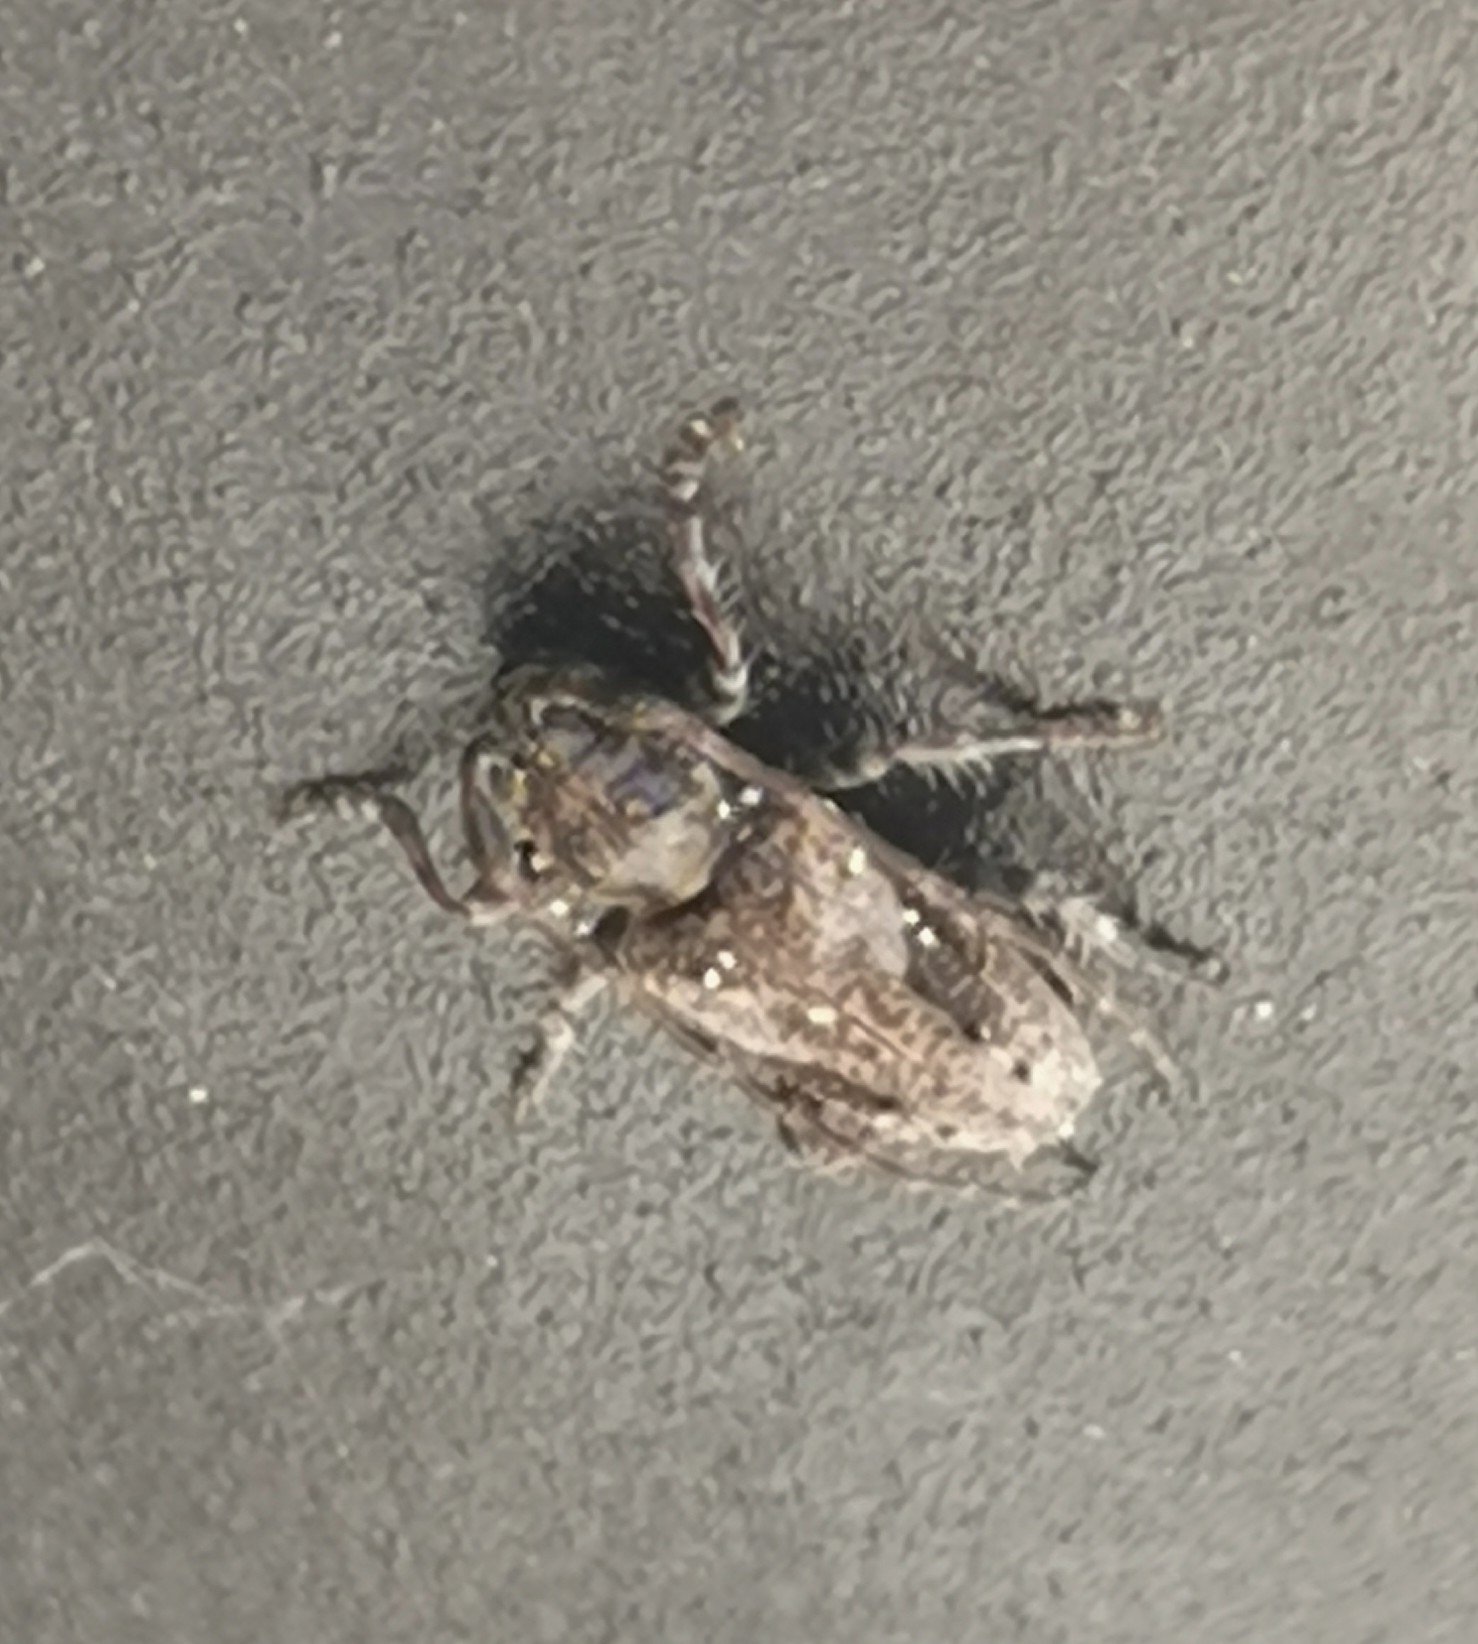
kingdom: Animalia
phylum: Arthropoda
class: Insecta
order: Coleoptera
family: Cerambycidae
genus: Pogonocherus
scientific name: Pogonocherus decoratus
